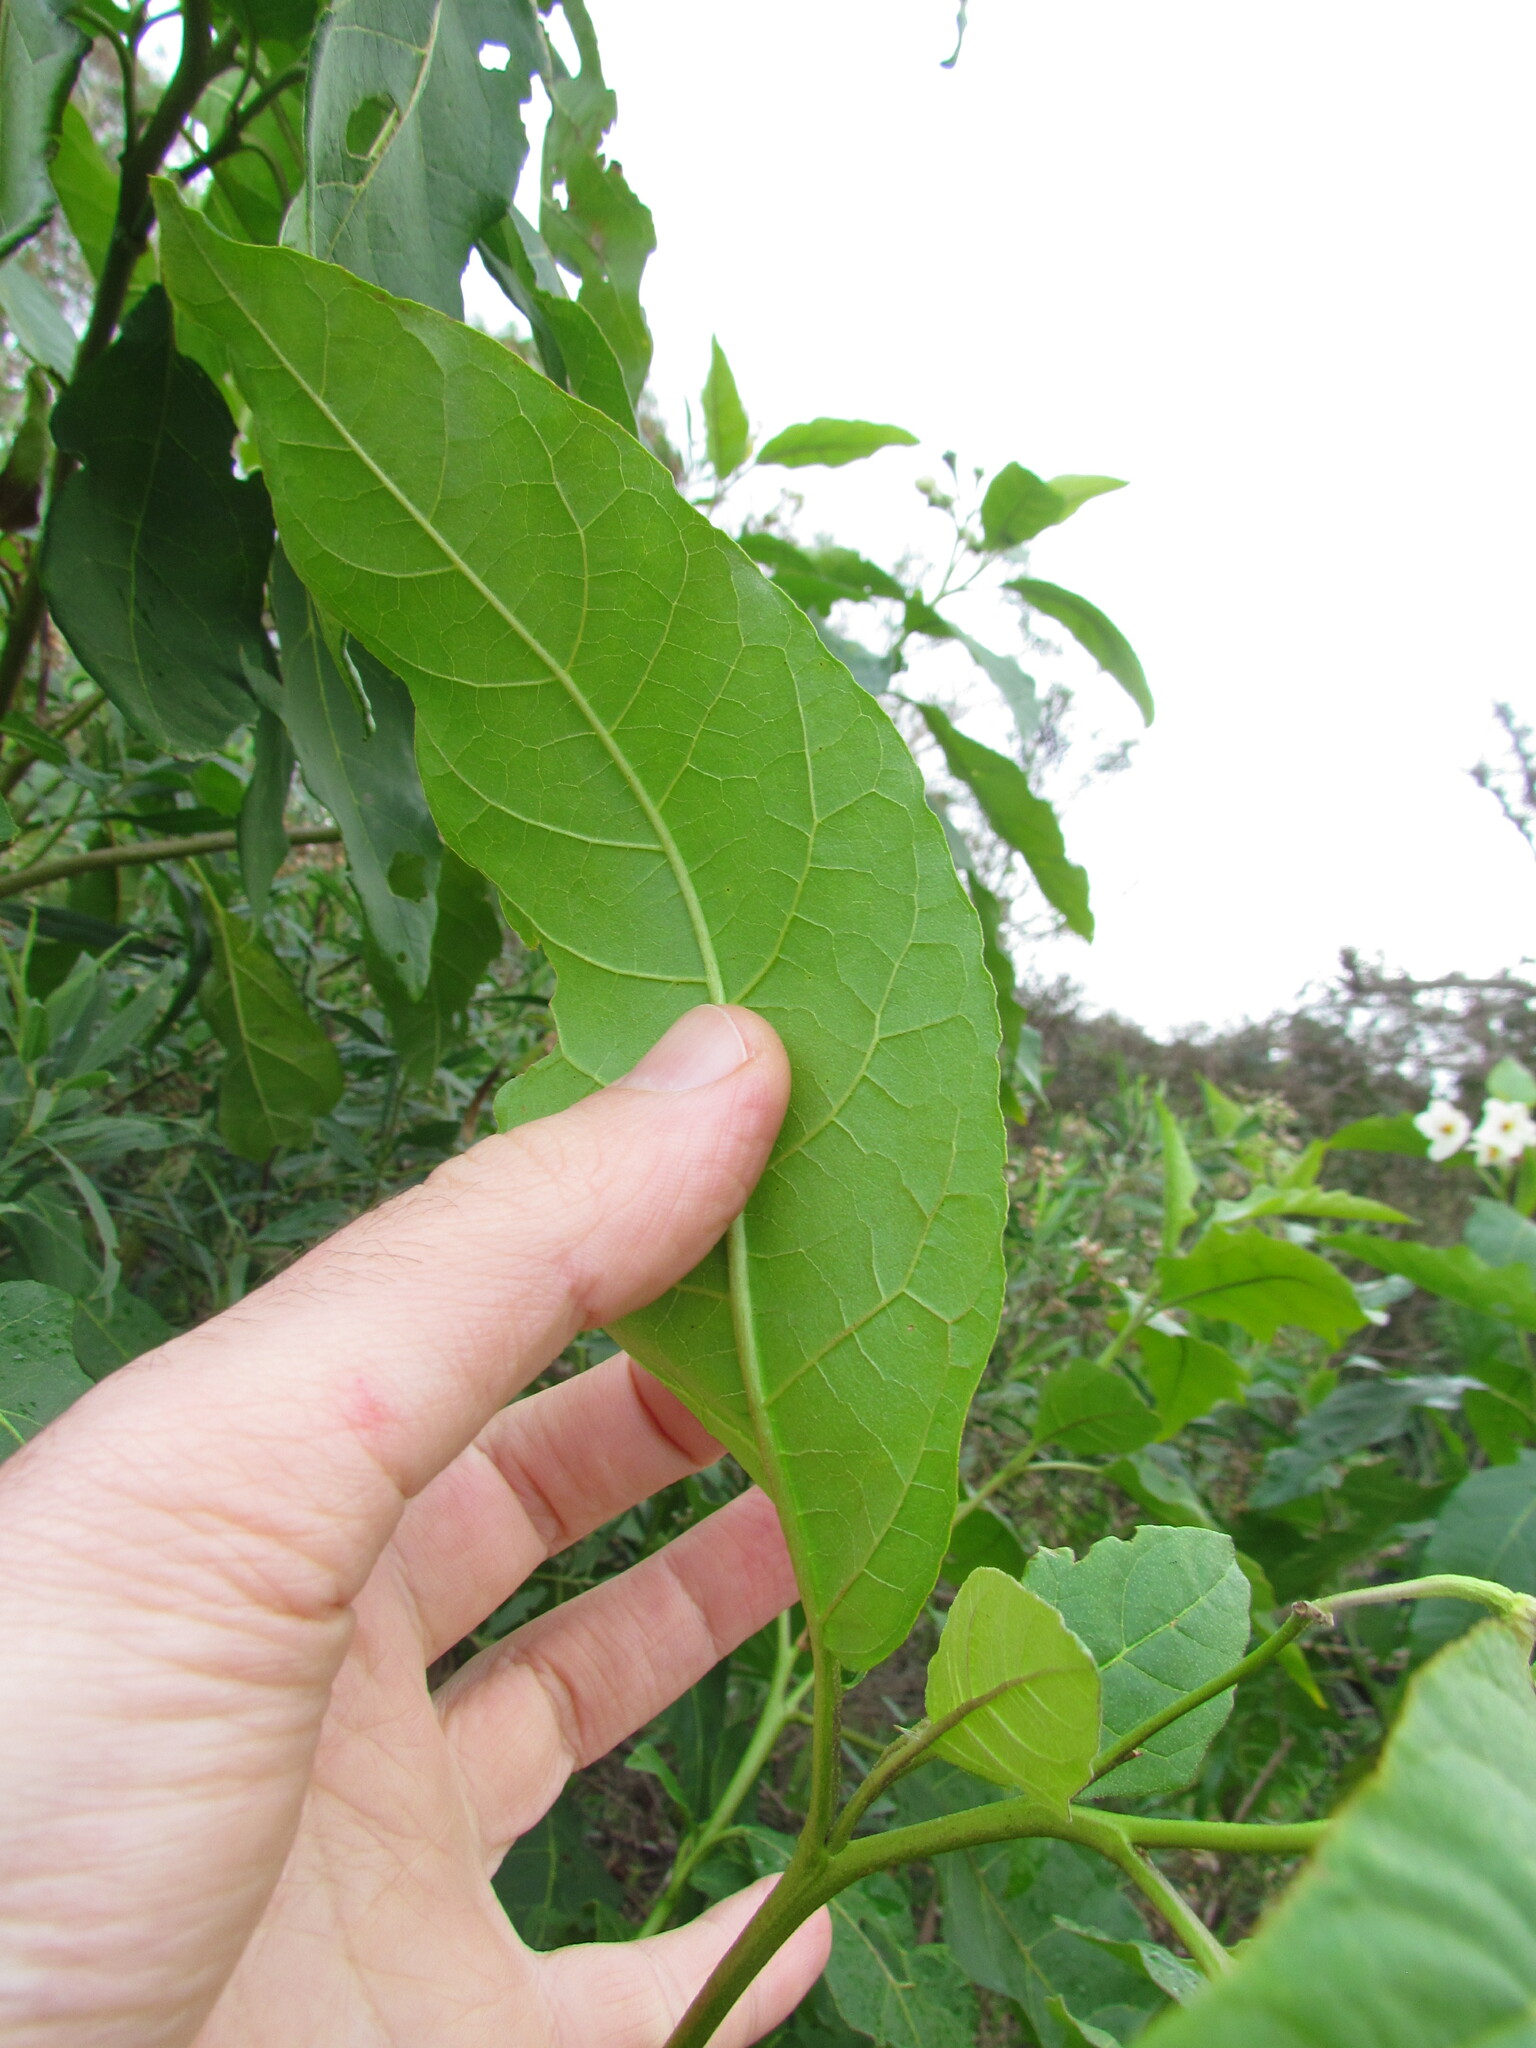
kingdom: Plantae
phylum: Tracheophyta
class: Magnoliopsida
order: Solanales
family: Solanaceae
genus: Solanum
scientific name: Solanum bonariense
